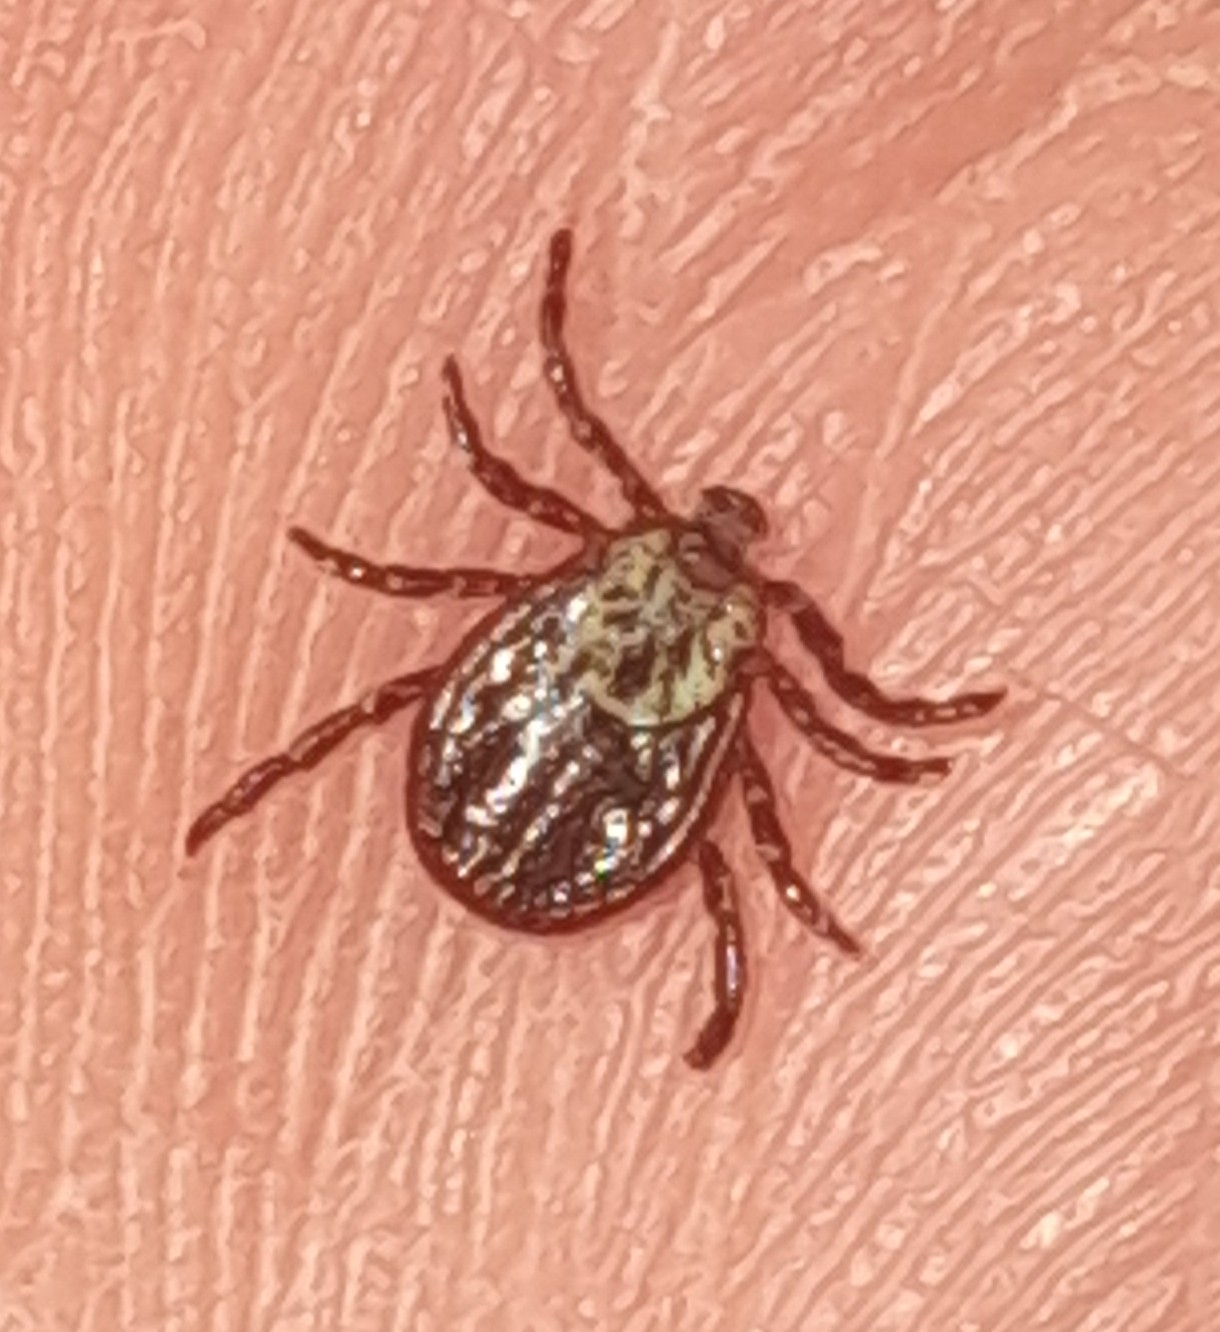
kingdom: Animalia
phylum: Arthropoda
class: Arachnida
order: Ixodida
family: Ixodidae
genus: Dermacentor
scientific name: Dermacentor reticulatus
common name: Ornate cow tick
